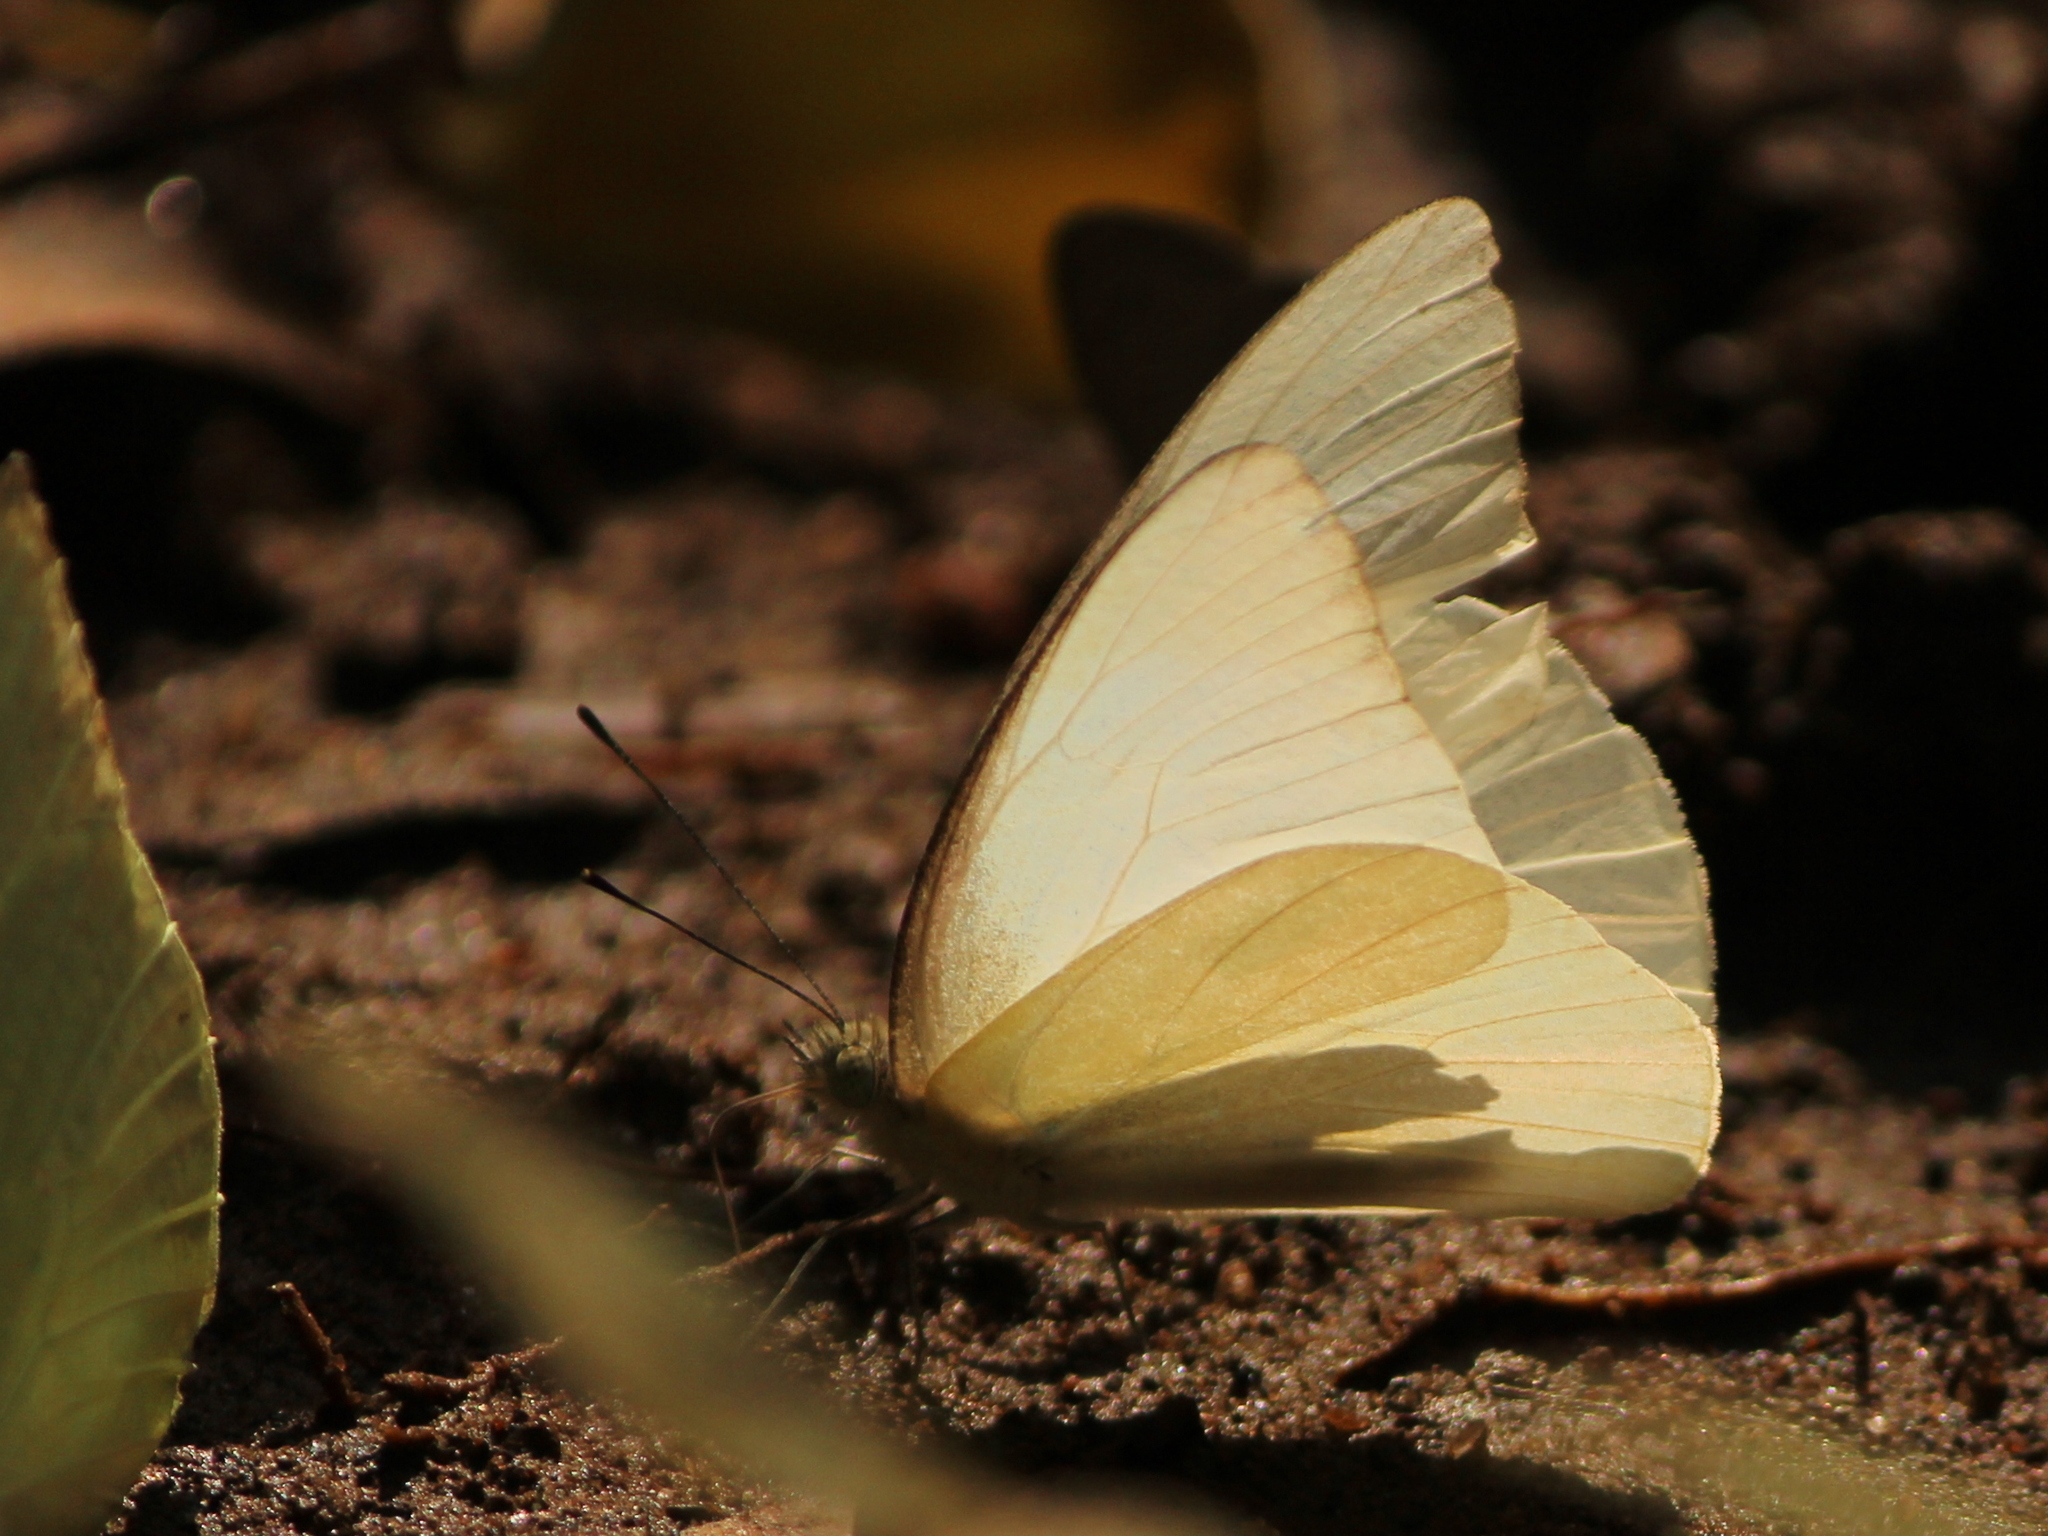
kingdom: Animalia
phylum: Arthropoda
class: Insecta
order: Lepidoptera
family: Pieridae
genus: Appias
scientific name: Appias albina
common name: Common albatross
